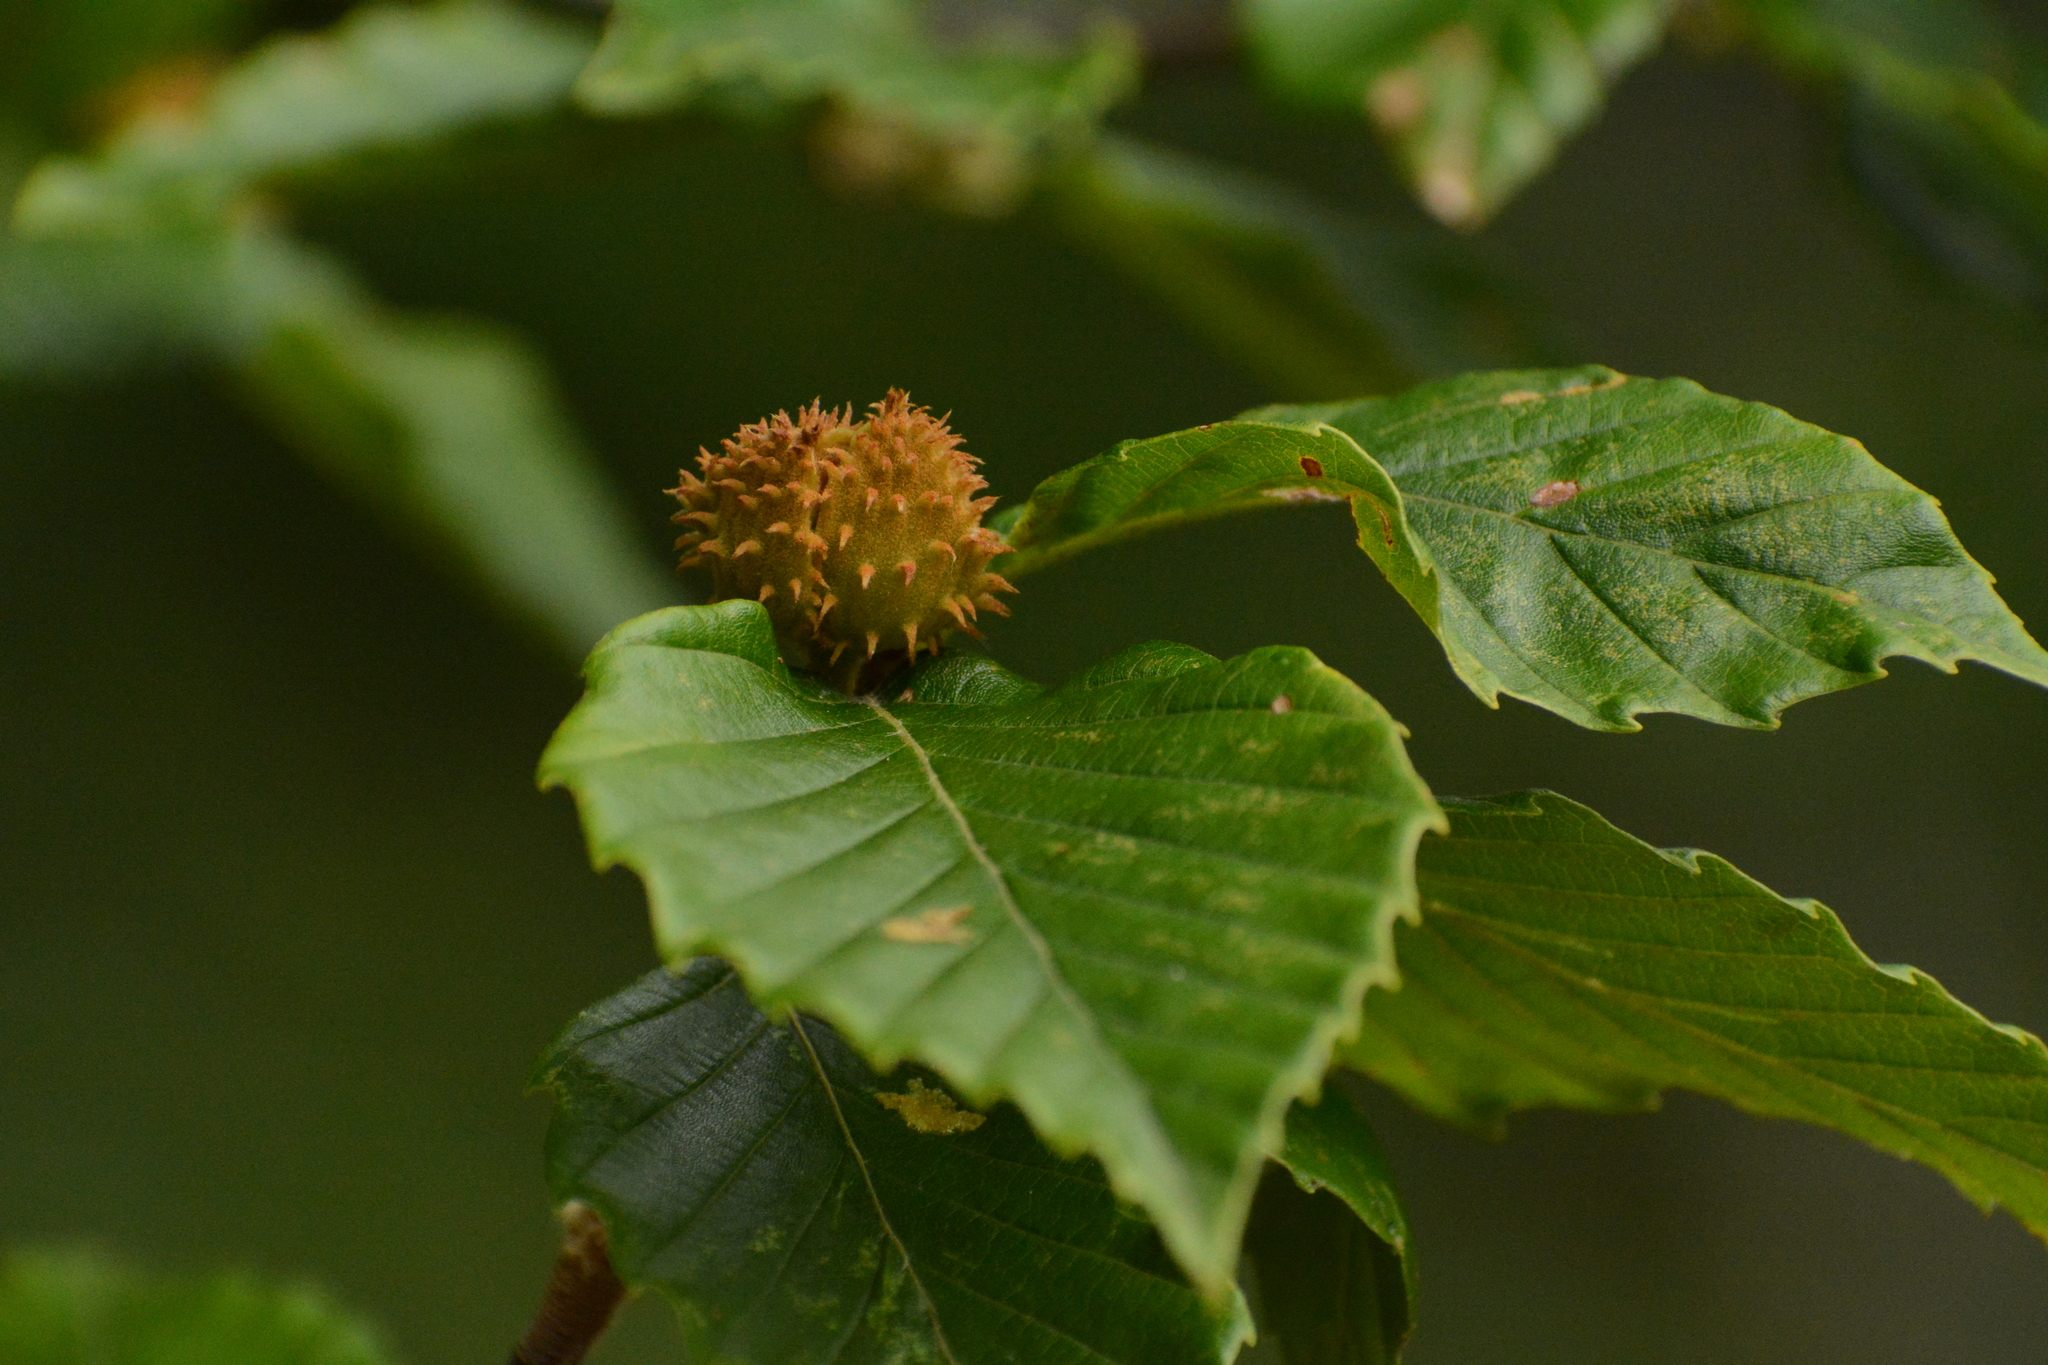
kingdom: Plantae
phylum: Tracheophyta
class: Magnoliopsida
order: Fagales
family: Fagaceae
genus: Fagus
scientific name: Fagus grandifolia
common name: American beech
